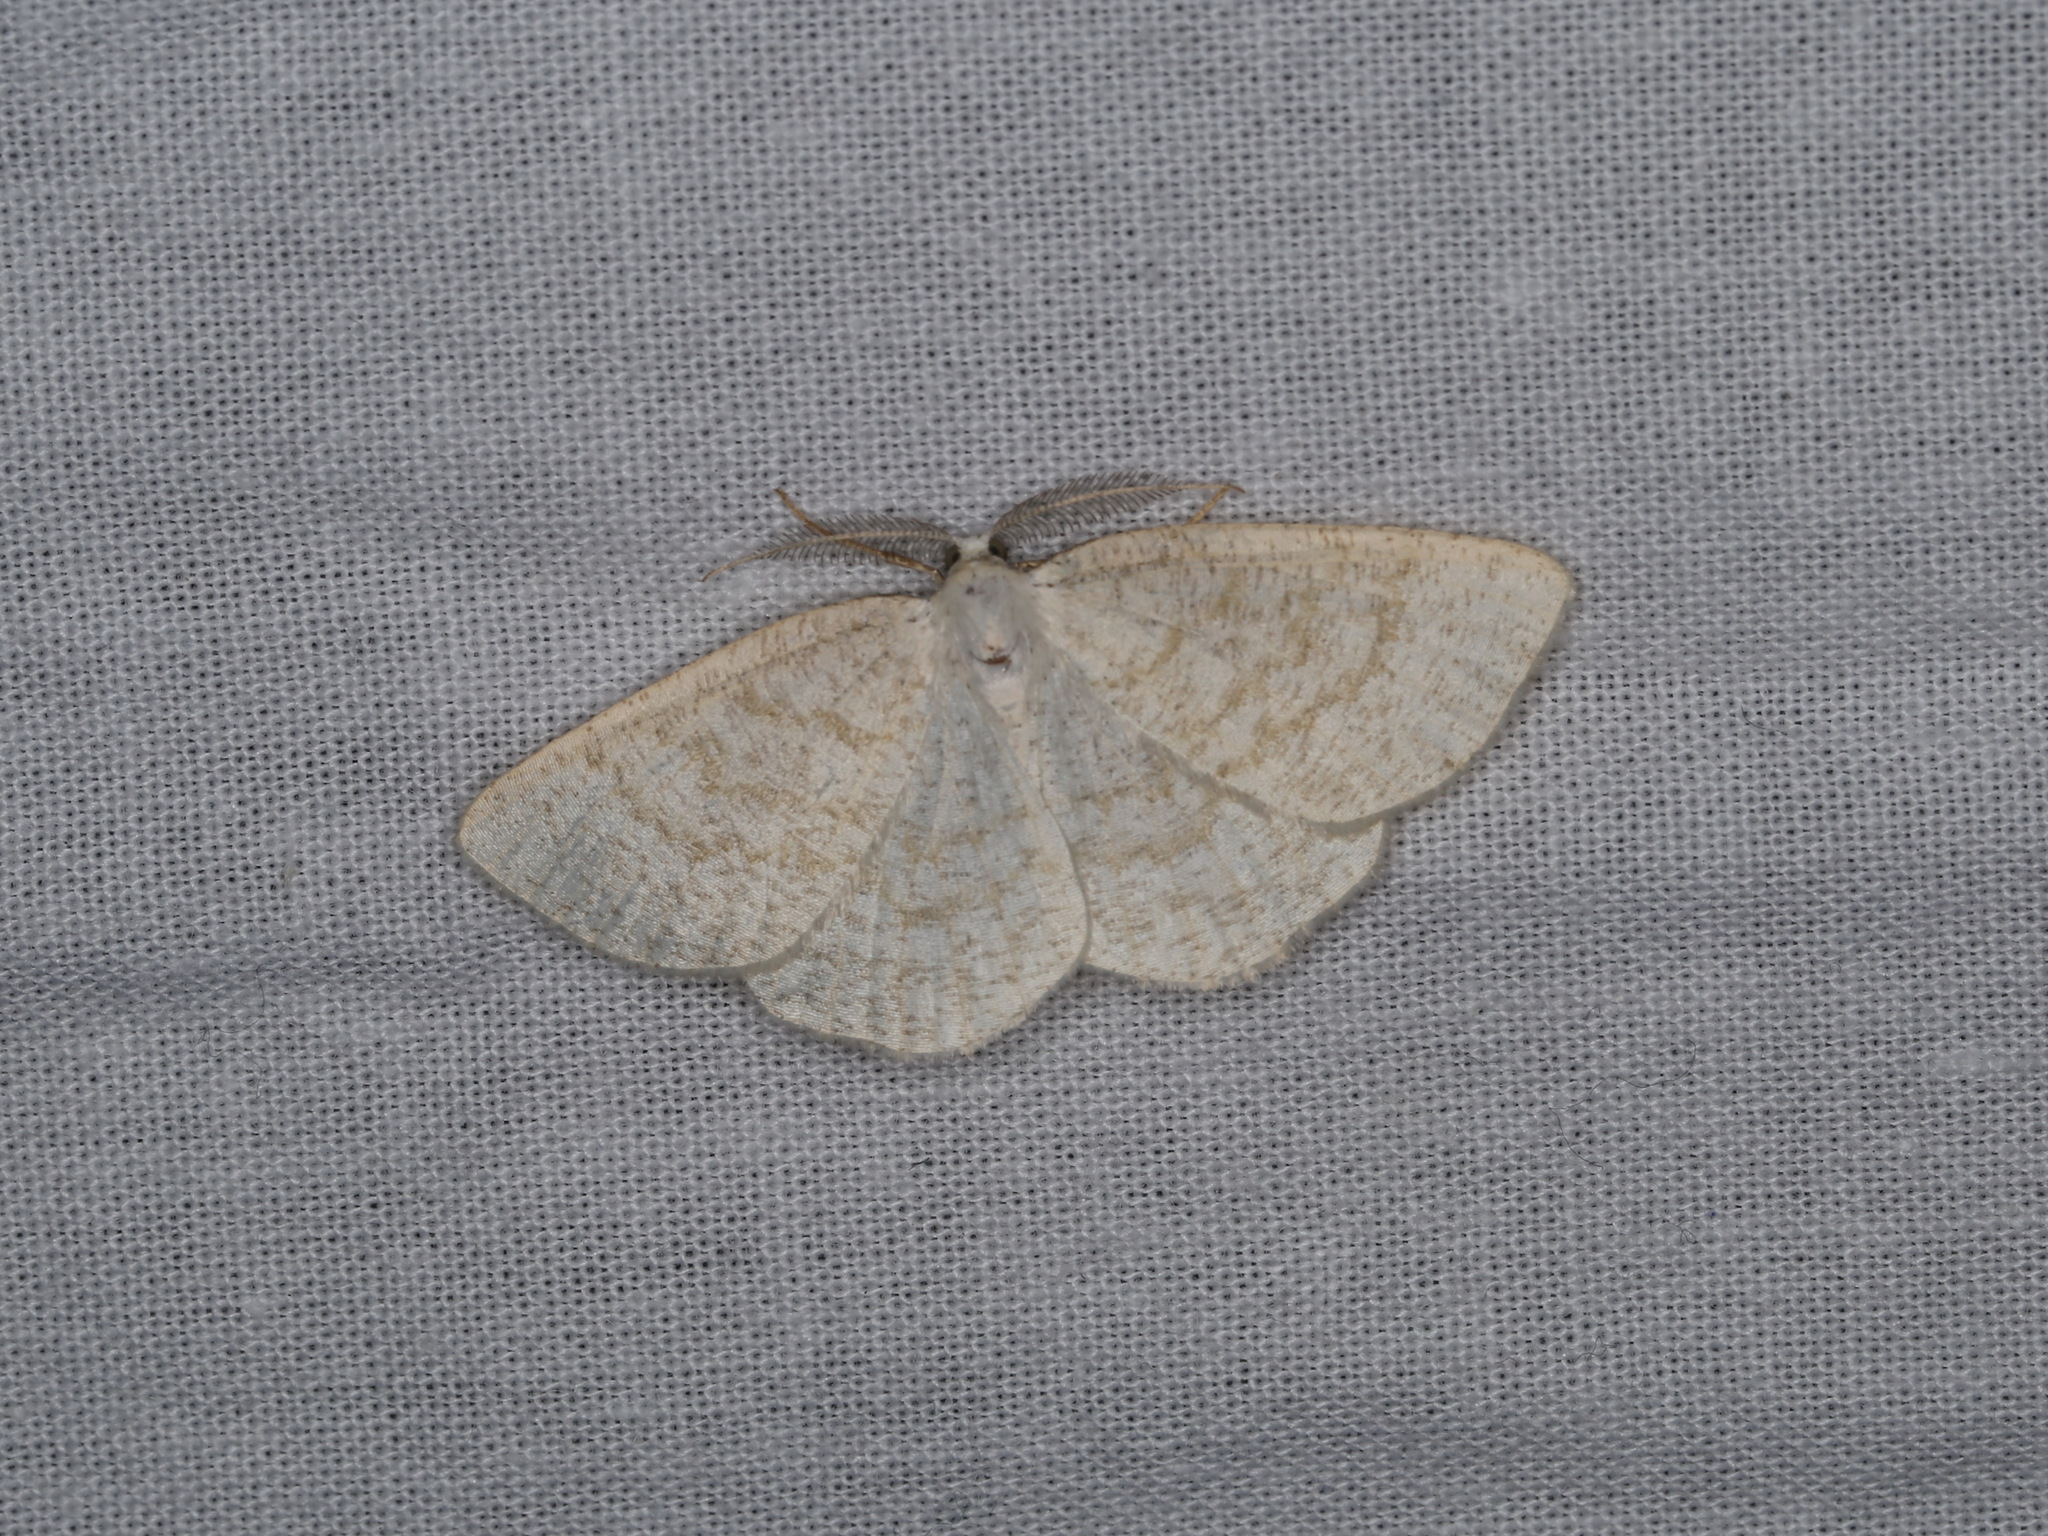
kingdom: Animalia
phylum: Arthropoda
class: Insecta
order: Lepidoptera
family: Geometridae
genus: Cabera
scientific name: Cabera exanthemata
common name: Common wave
